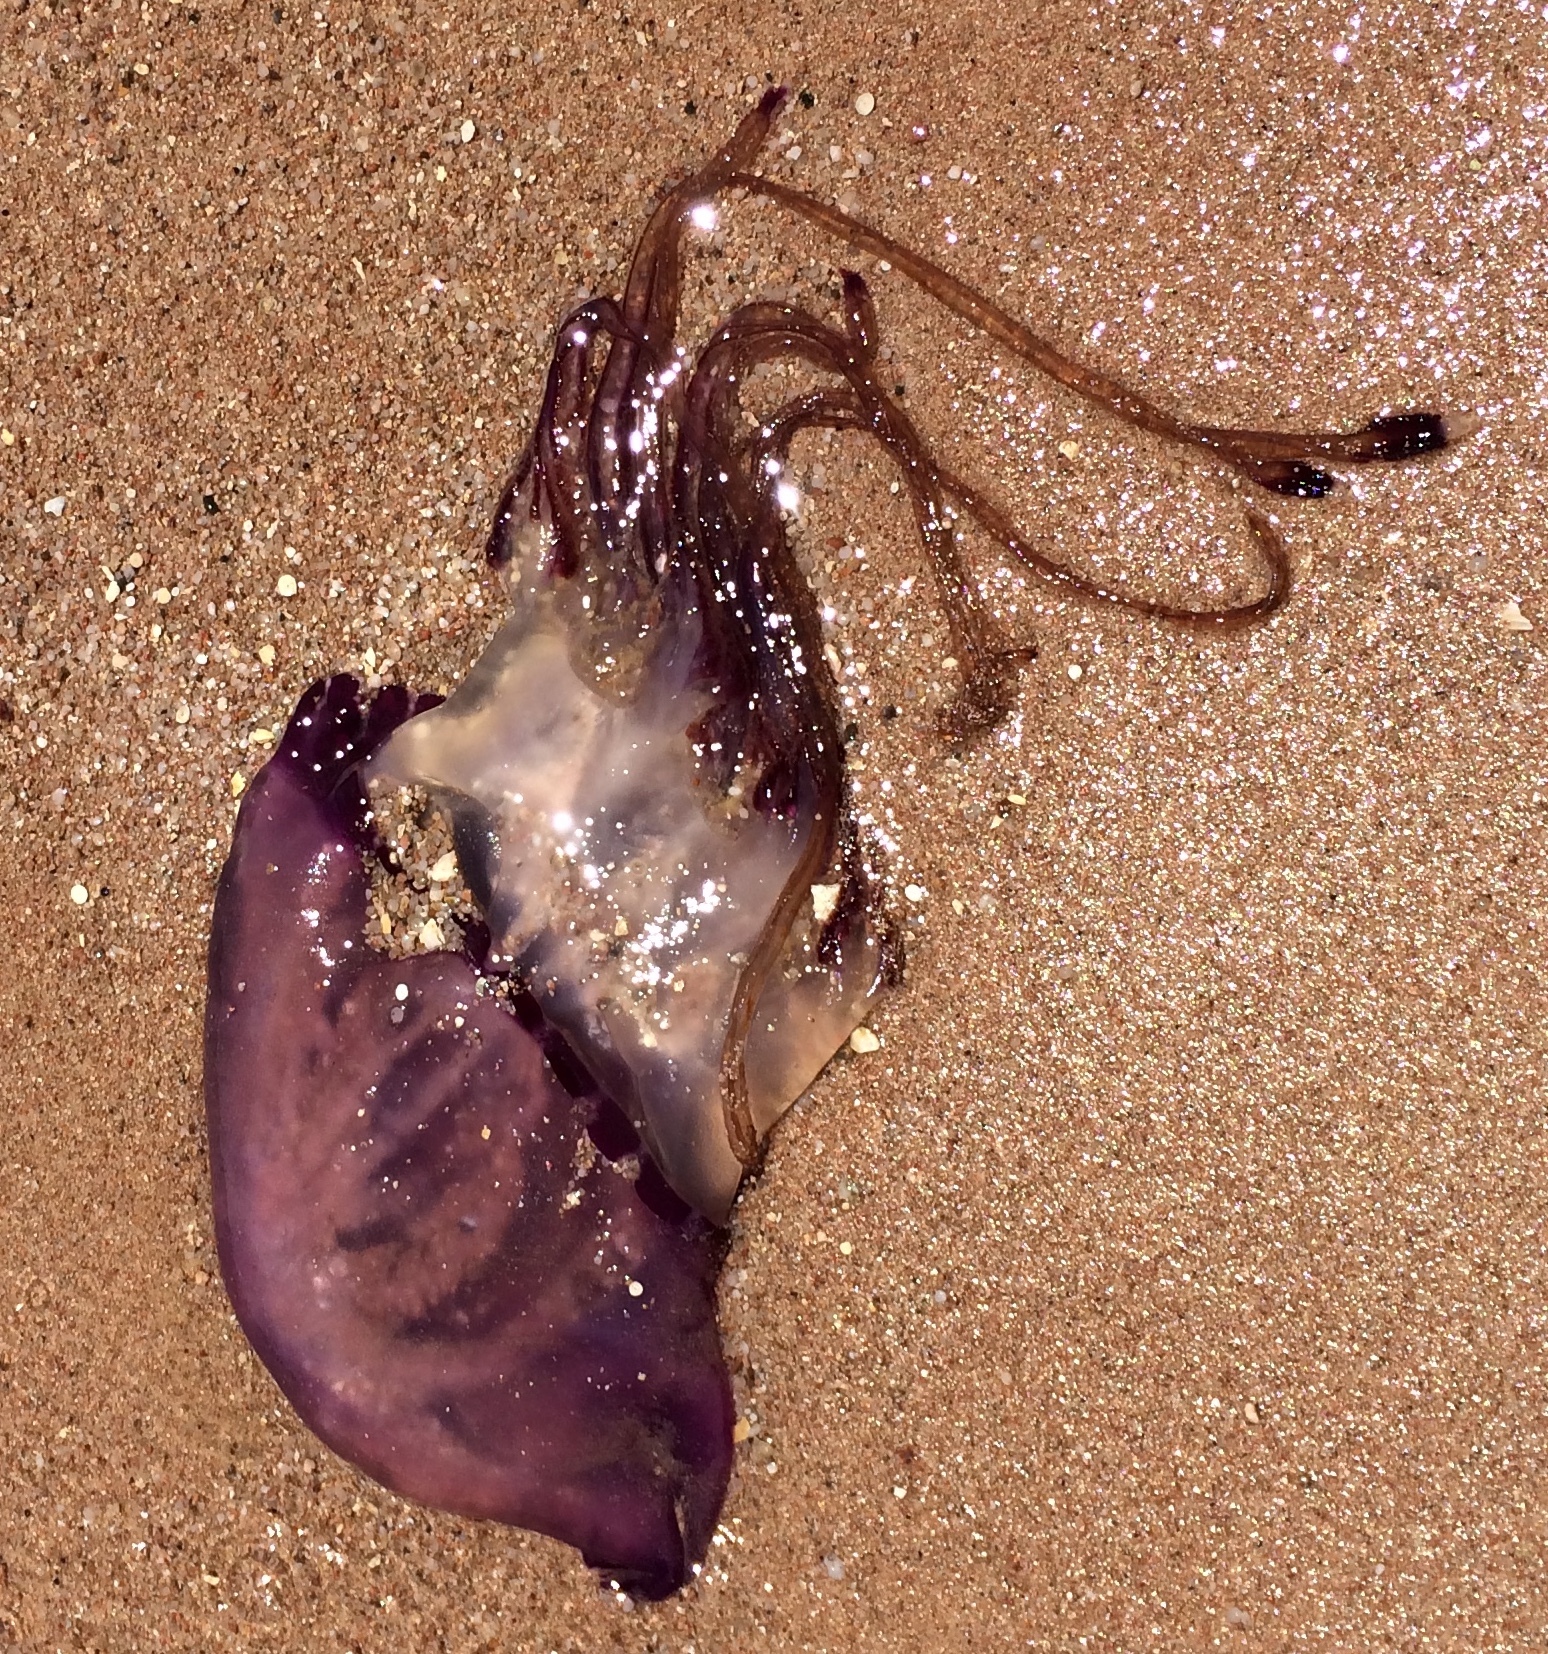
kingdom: Animalia
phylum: Cnidaria
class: Scyphozoa
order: Rhizostomeae
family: Leptobrachidae
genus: Thysanostoma
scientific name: Thysanostoma loriferum
